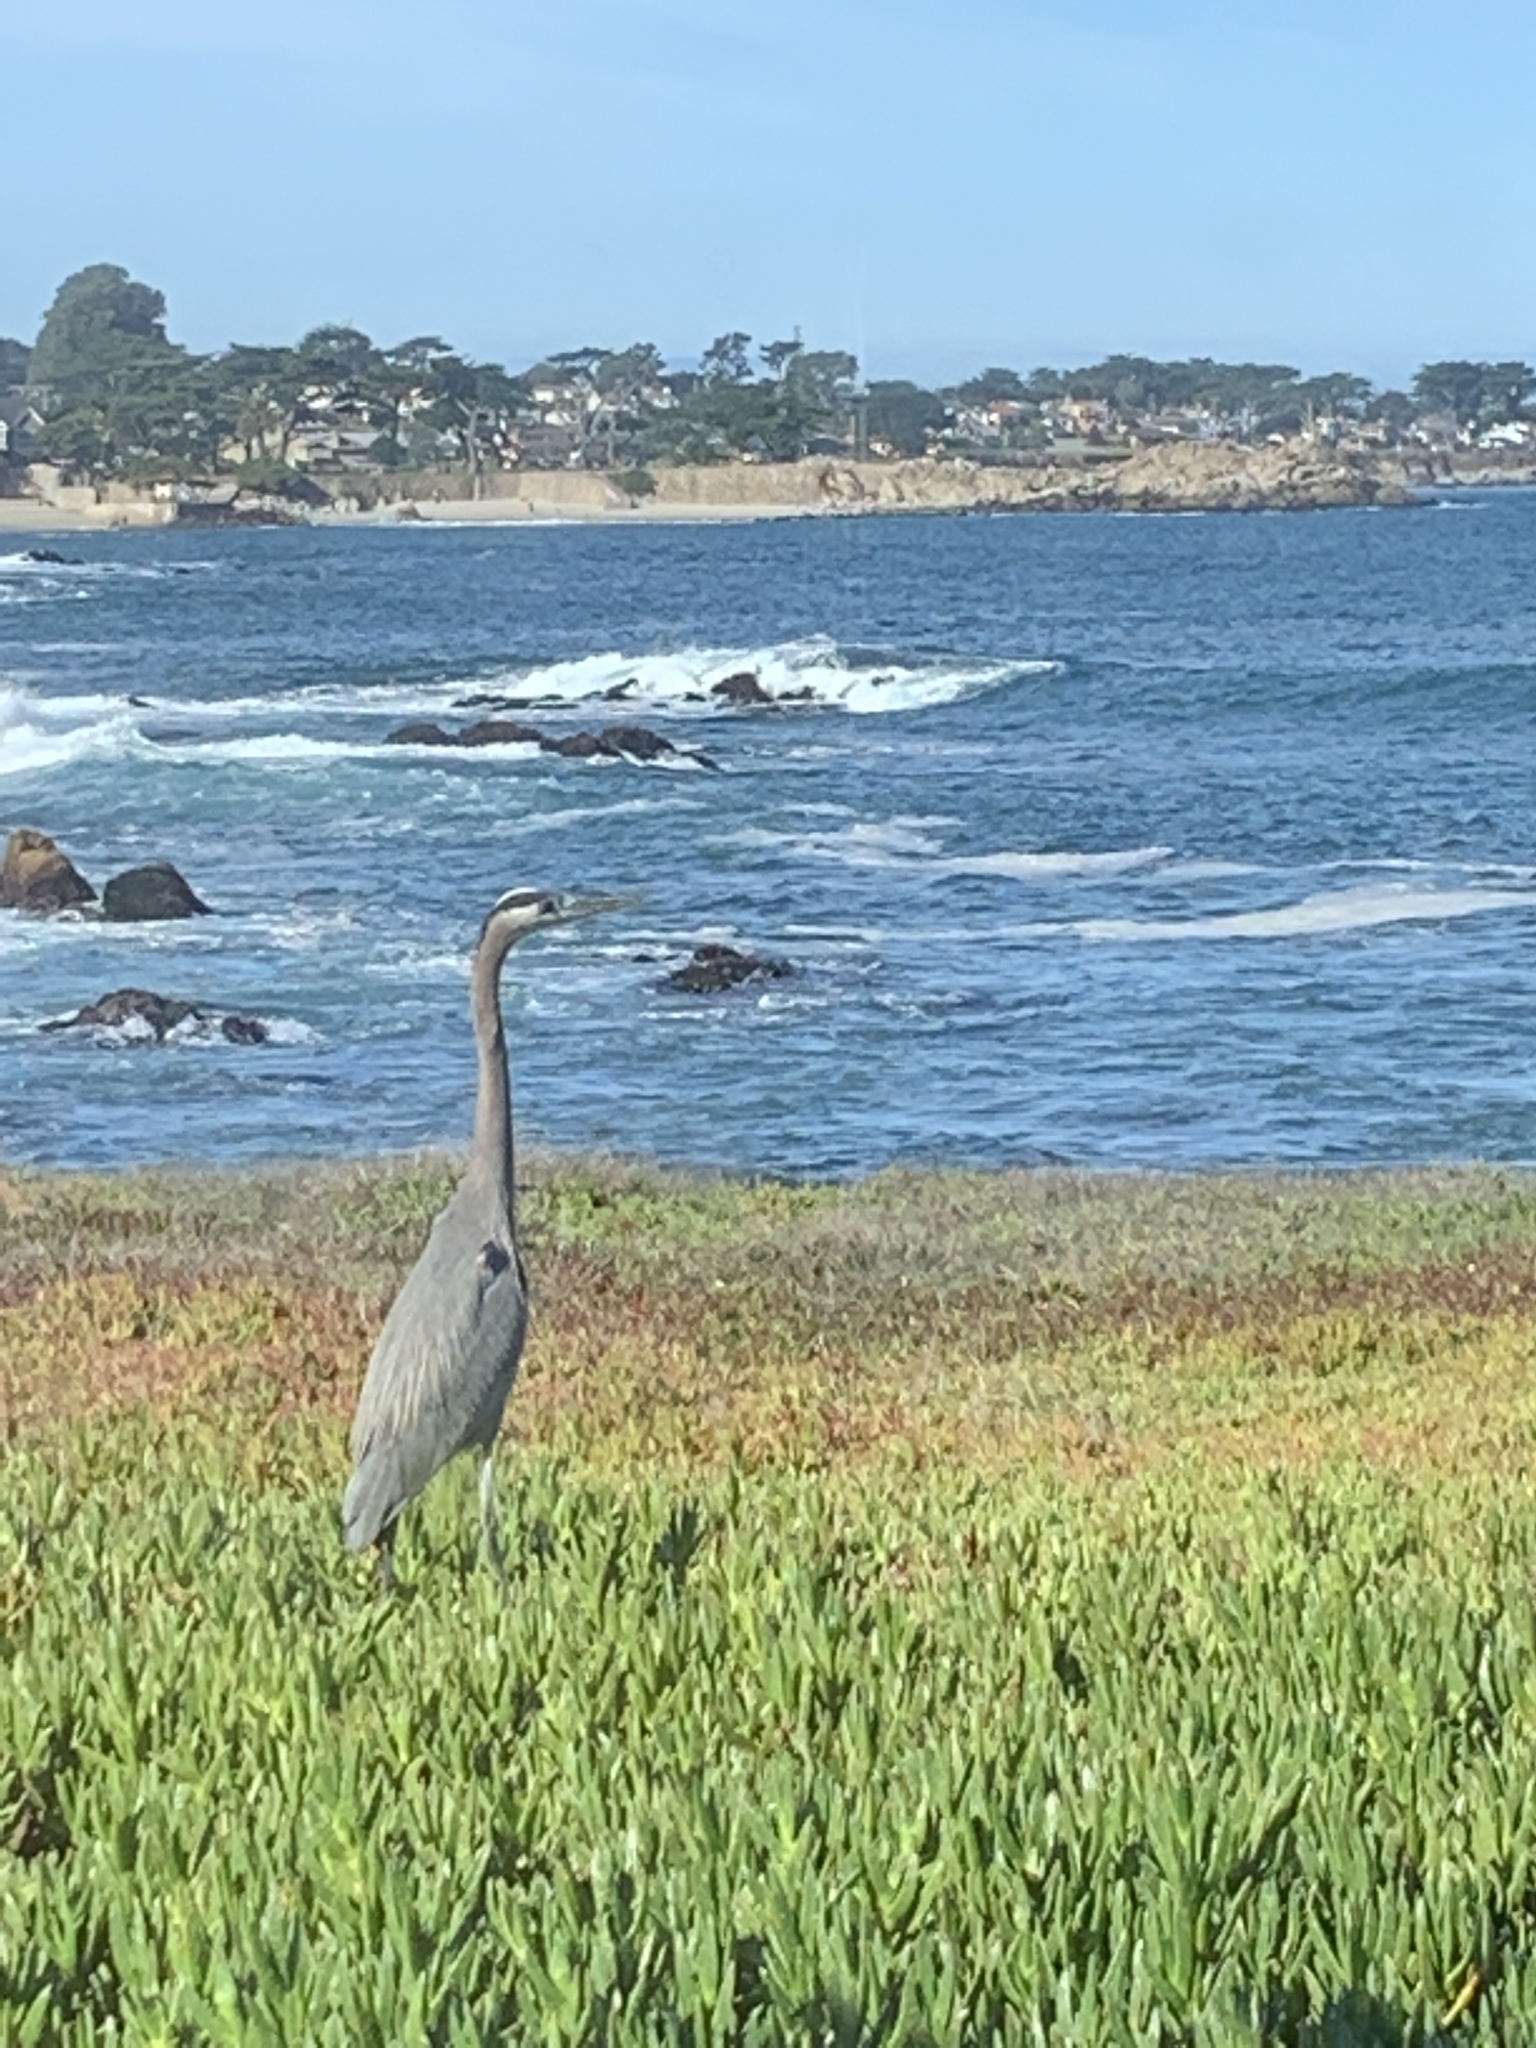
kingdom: Animalia
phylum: Chordata
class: Aves
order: Pelecaniformes
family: Ardeidae
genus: Ardea
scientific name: Ardea herodias
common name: Great blue heron
